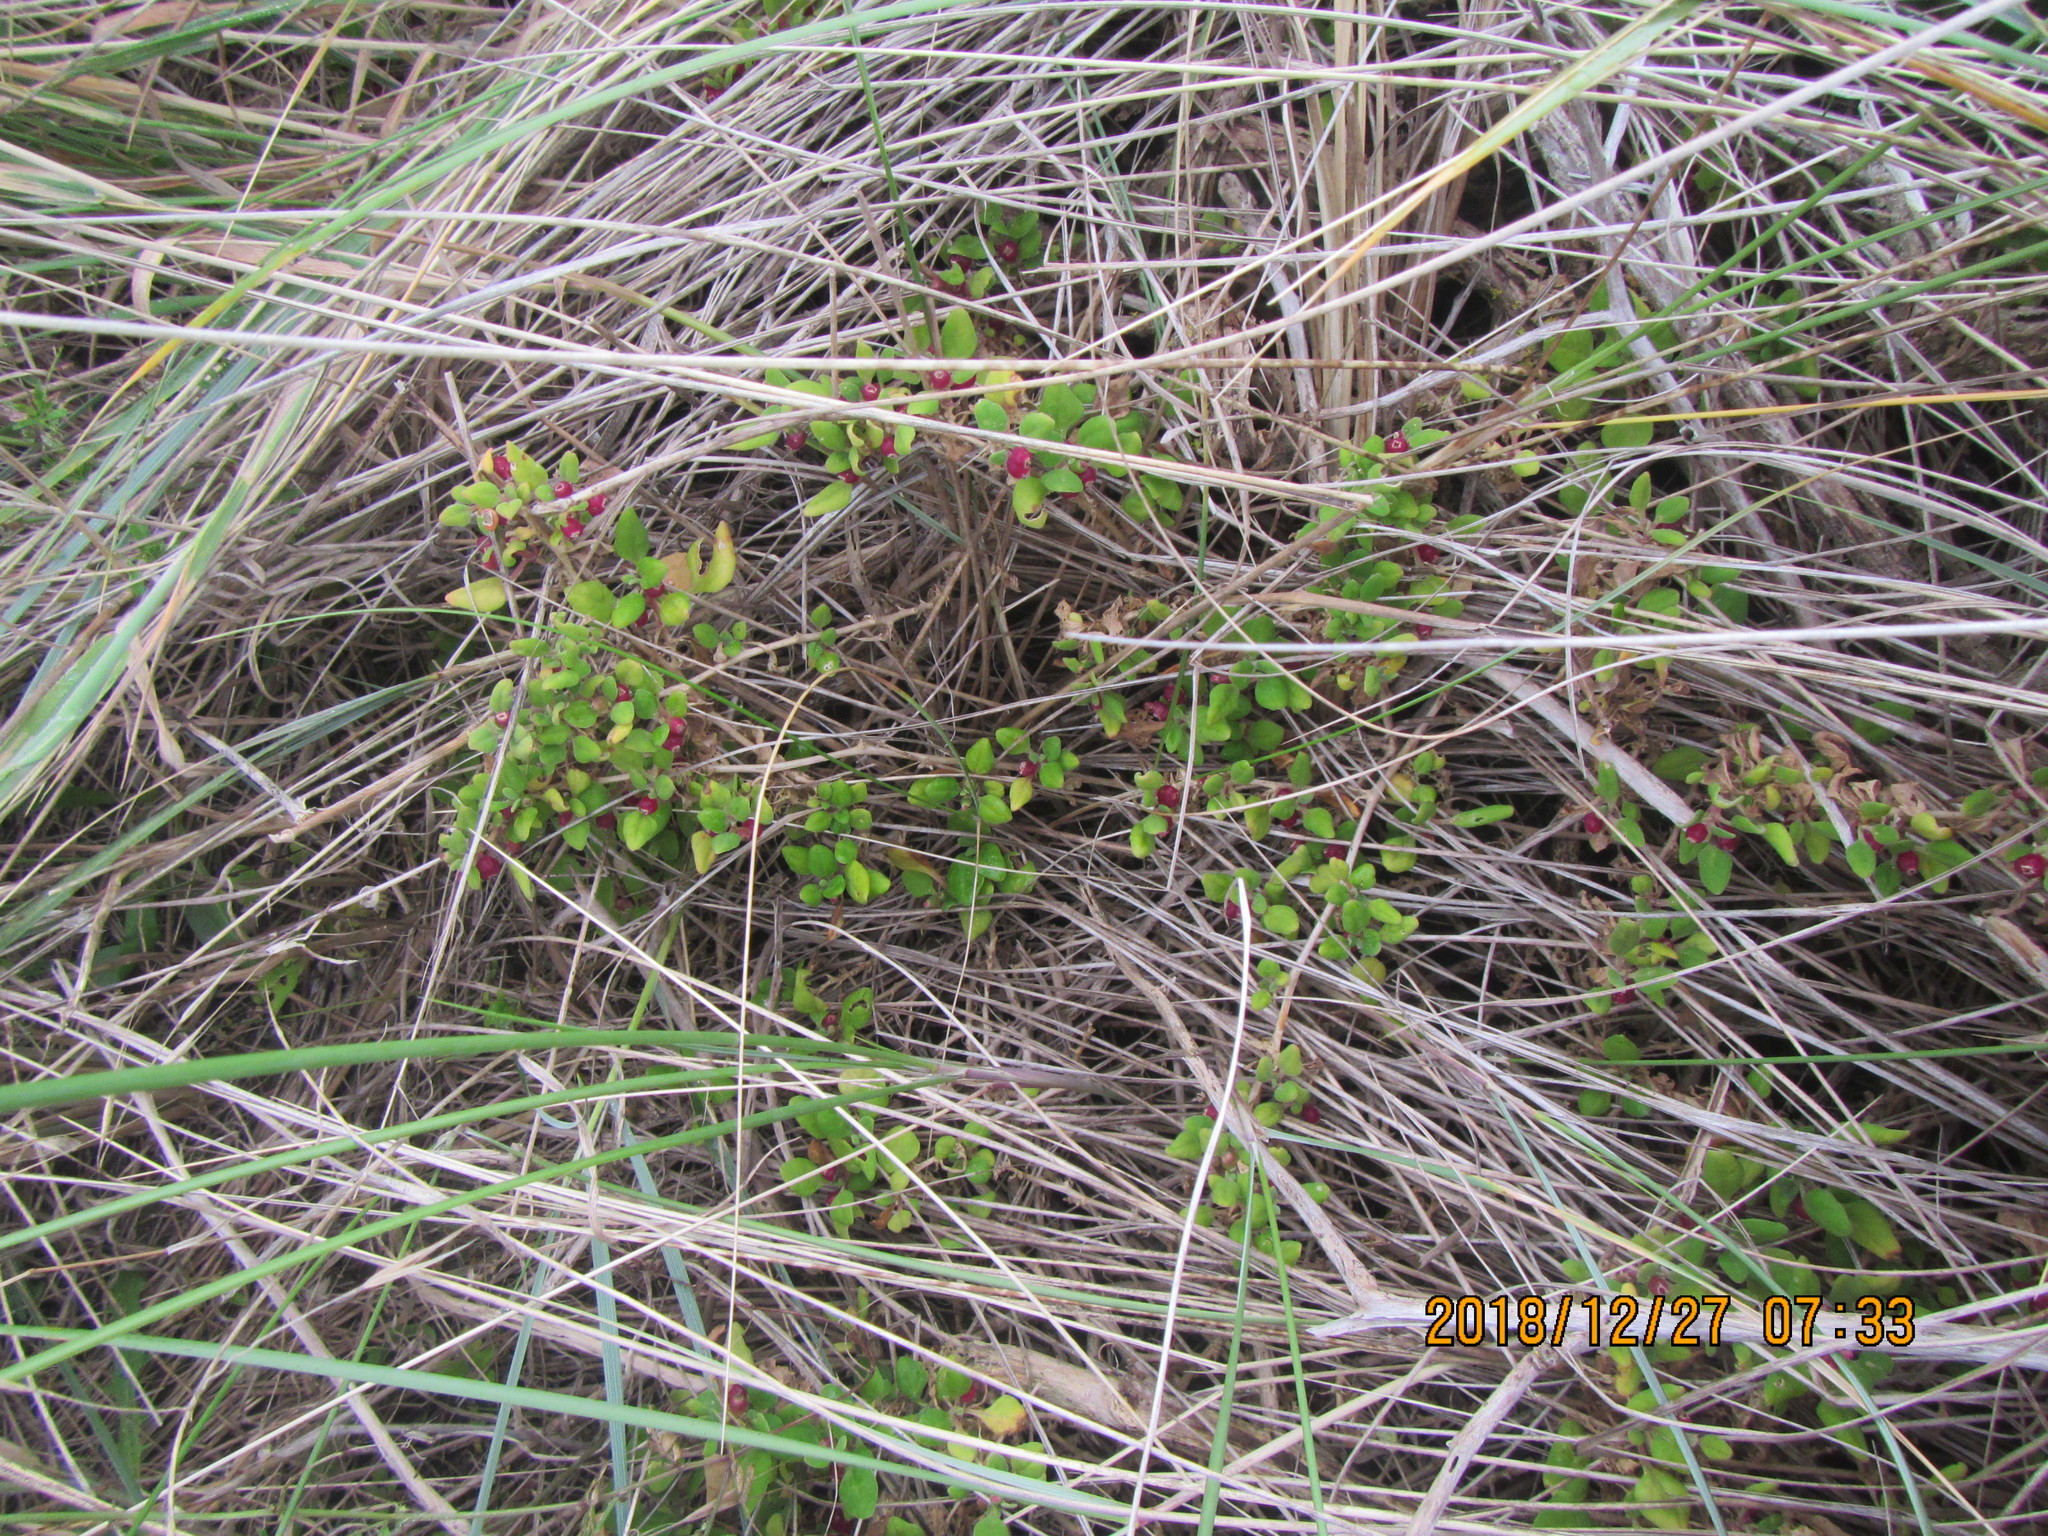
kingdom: Plantae
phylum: Tracheophyta
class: Magnoliopsida
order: Caryophyllales
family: Aizoaceae
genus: Tetragonia
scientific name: Tetragonia implexicoma
